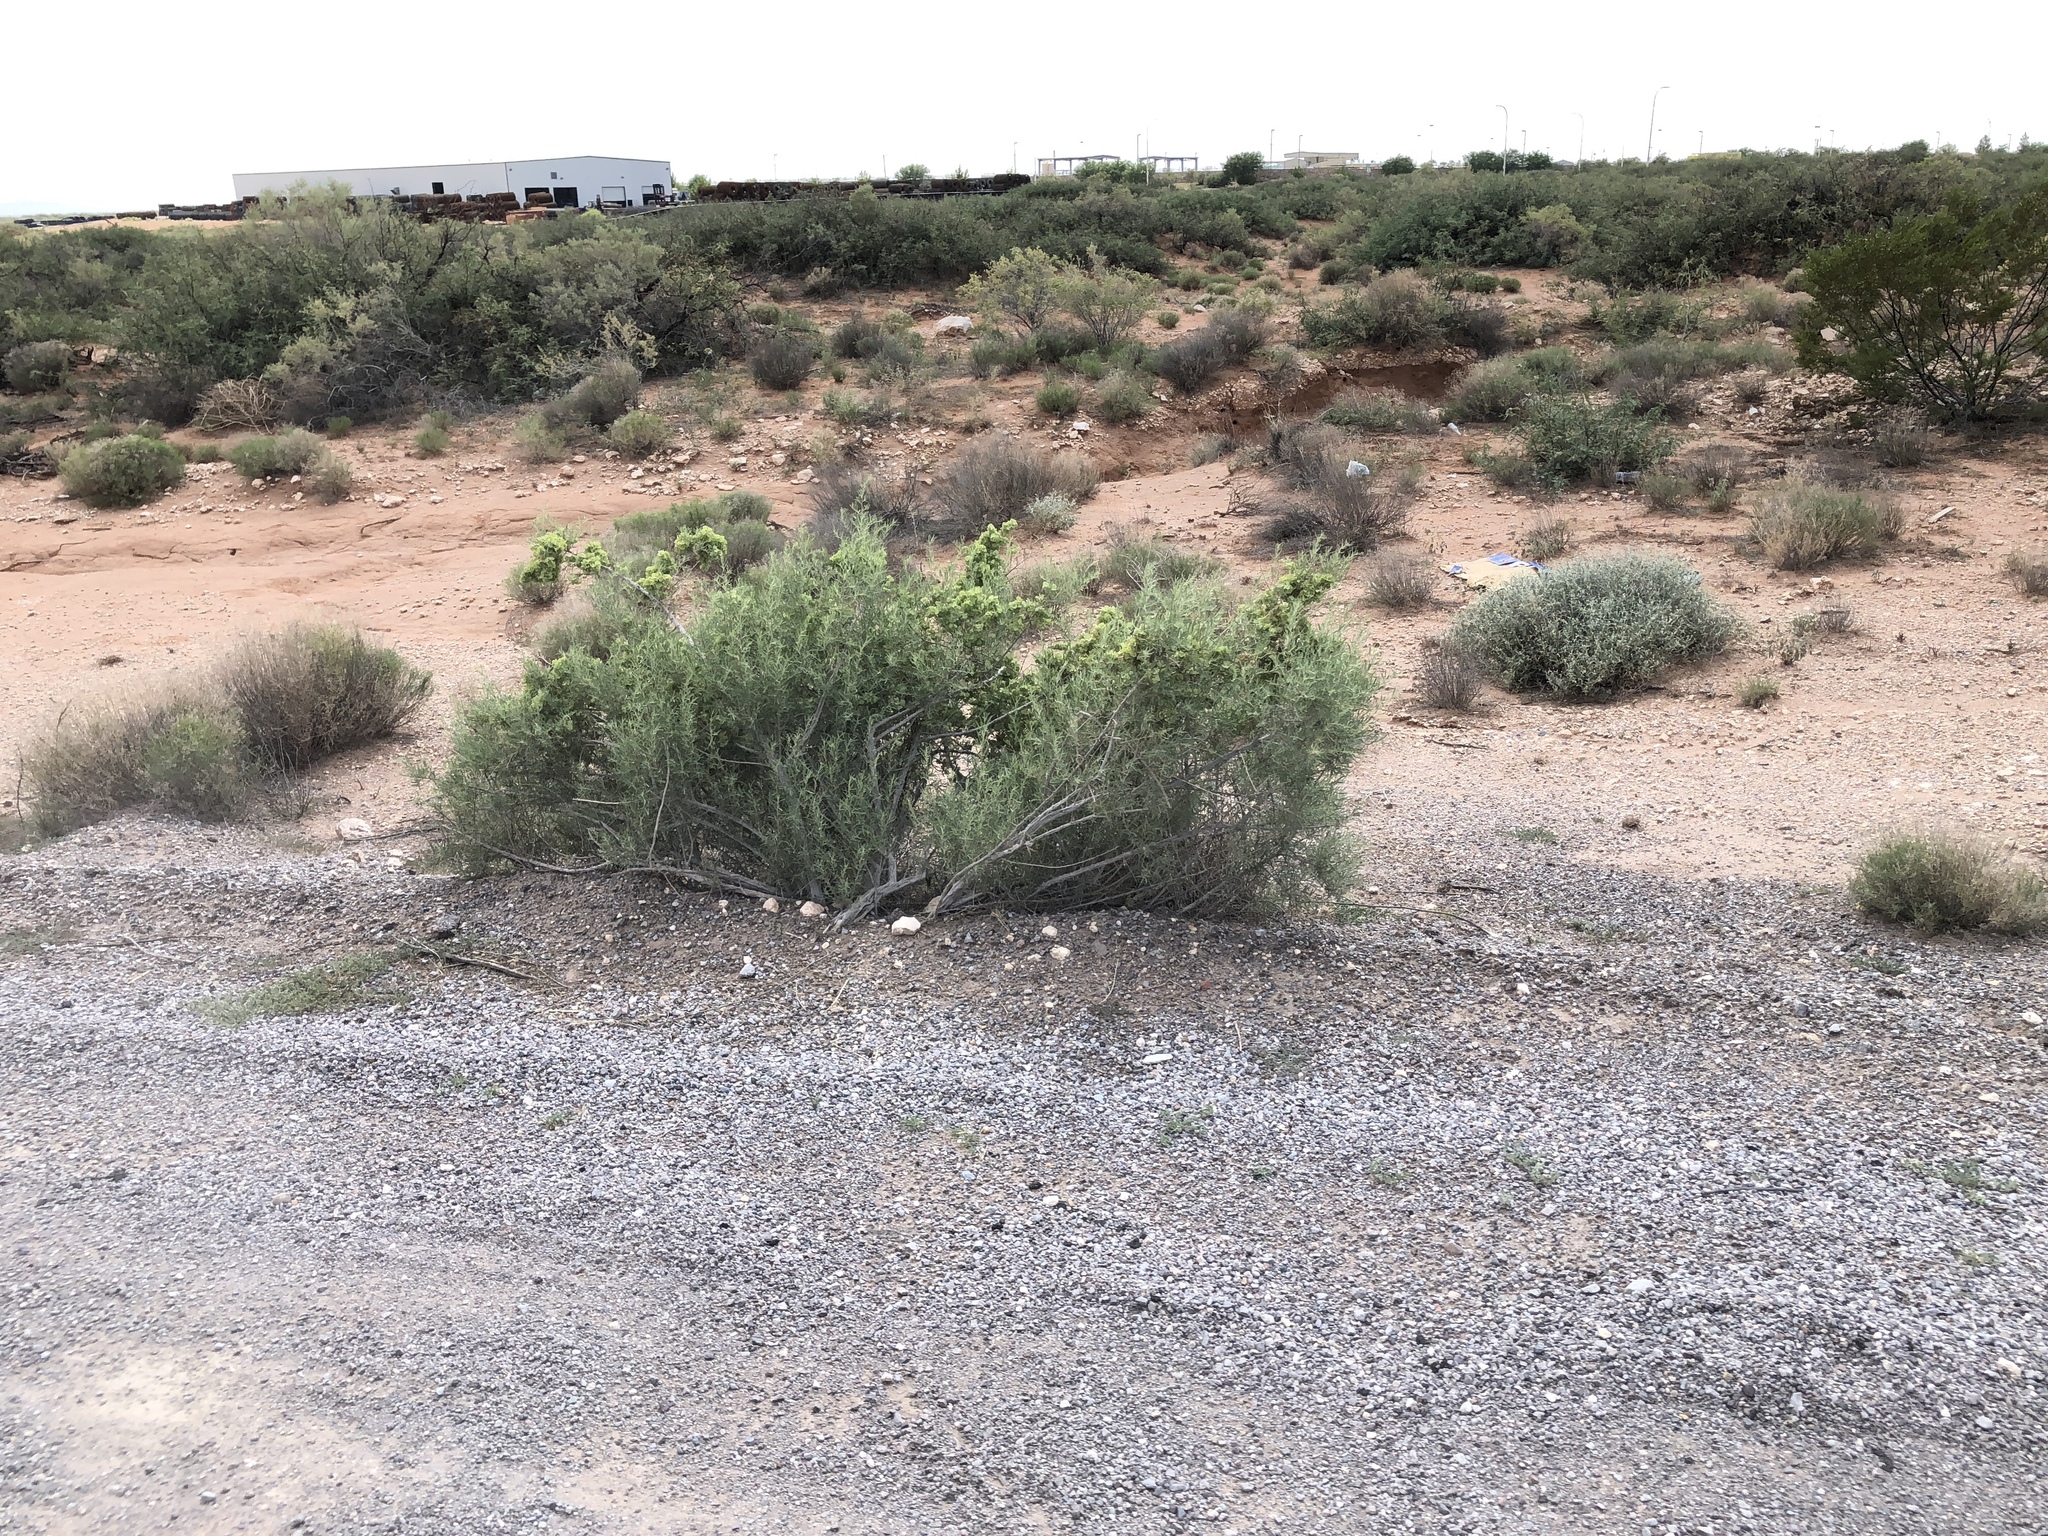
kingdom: Plantae
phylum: Tracheophyta
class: Magnoliopsida
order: Caryophyllales
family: Amaranthaceae
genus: Atriplex
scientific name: Atriplex canescens
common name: Four-wing saltbush
